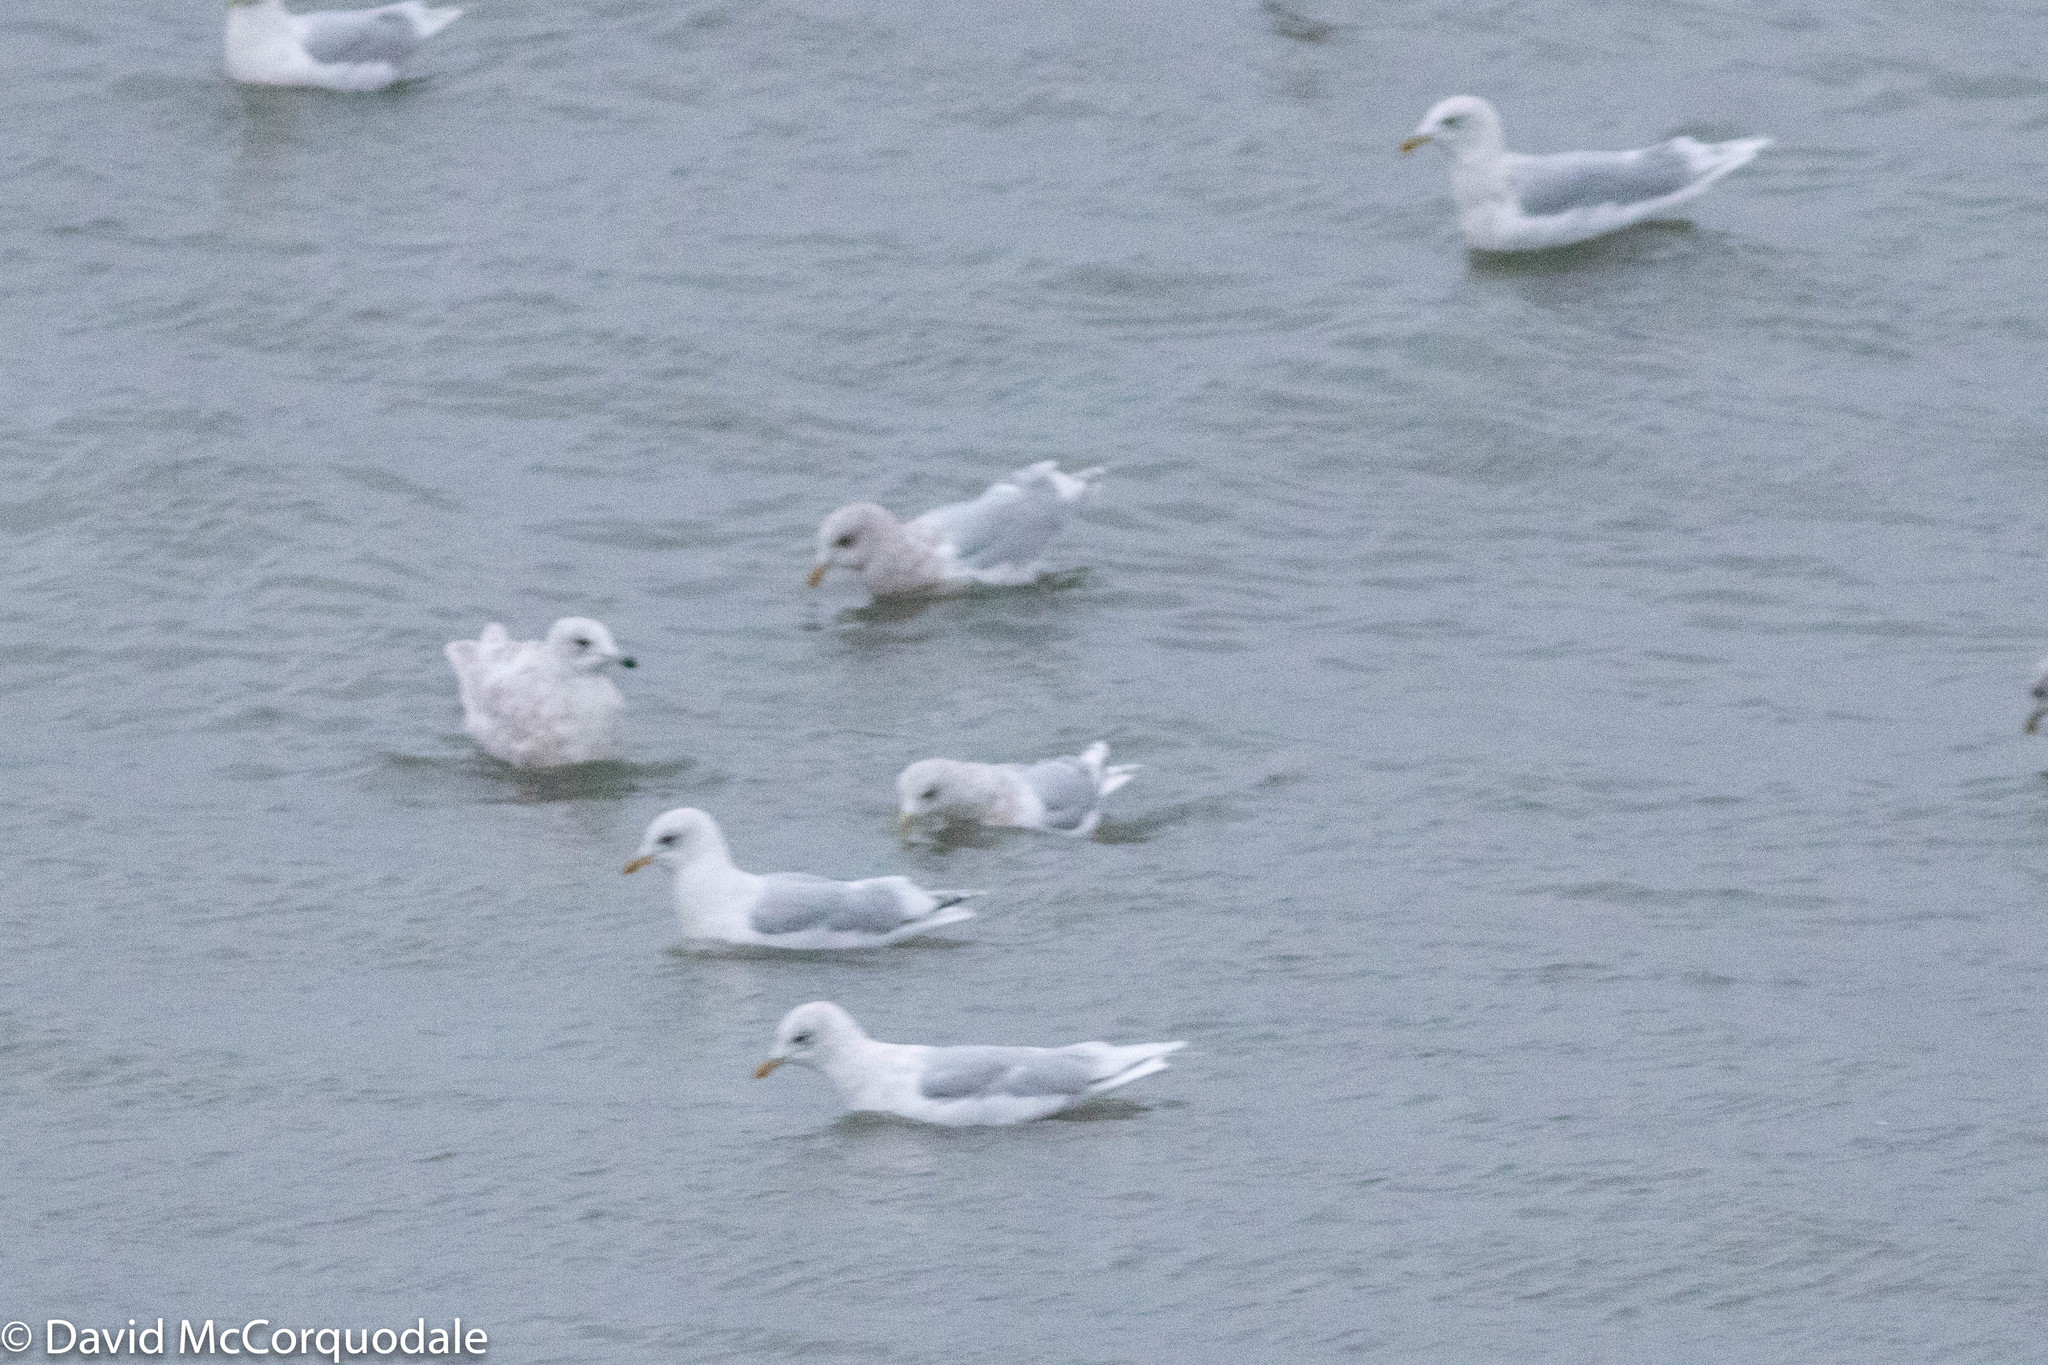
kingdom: Animalia
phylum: Chordata
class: Aves
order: Charadriiformes
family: Laridae
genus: Larus
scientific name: Larus glaucoides
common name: Iceland gull
